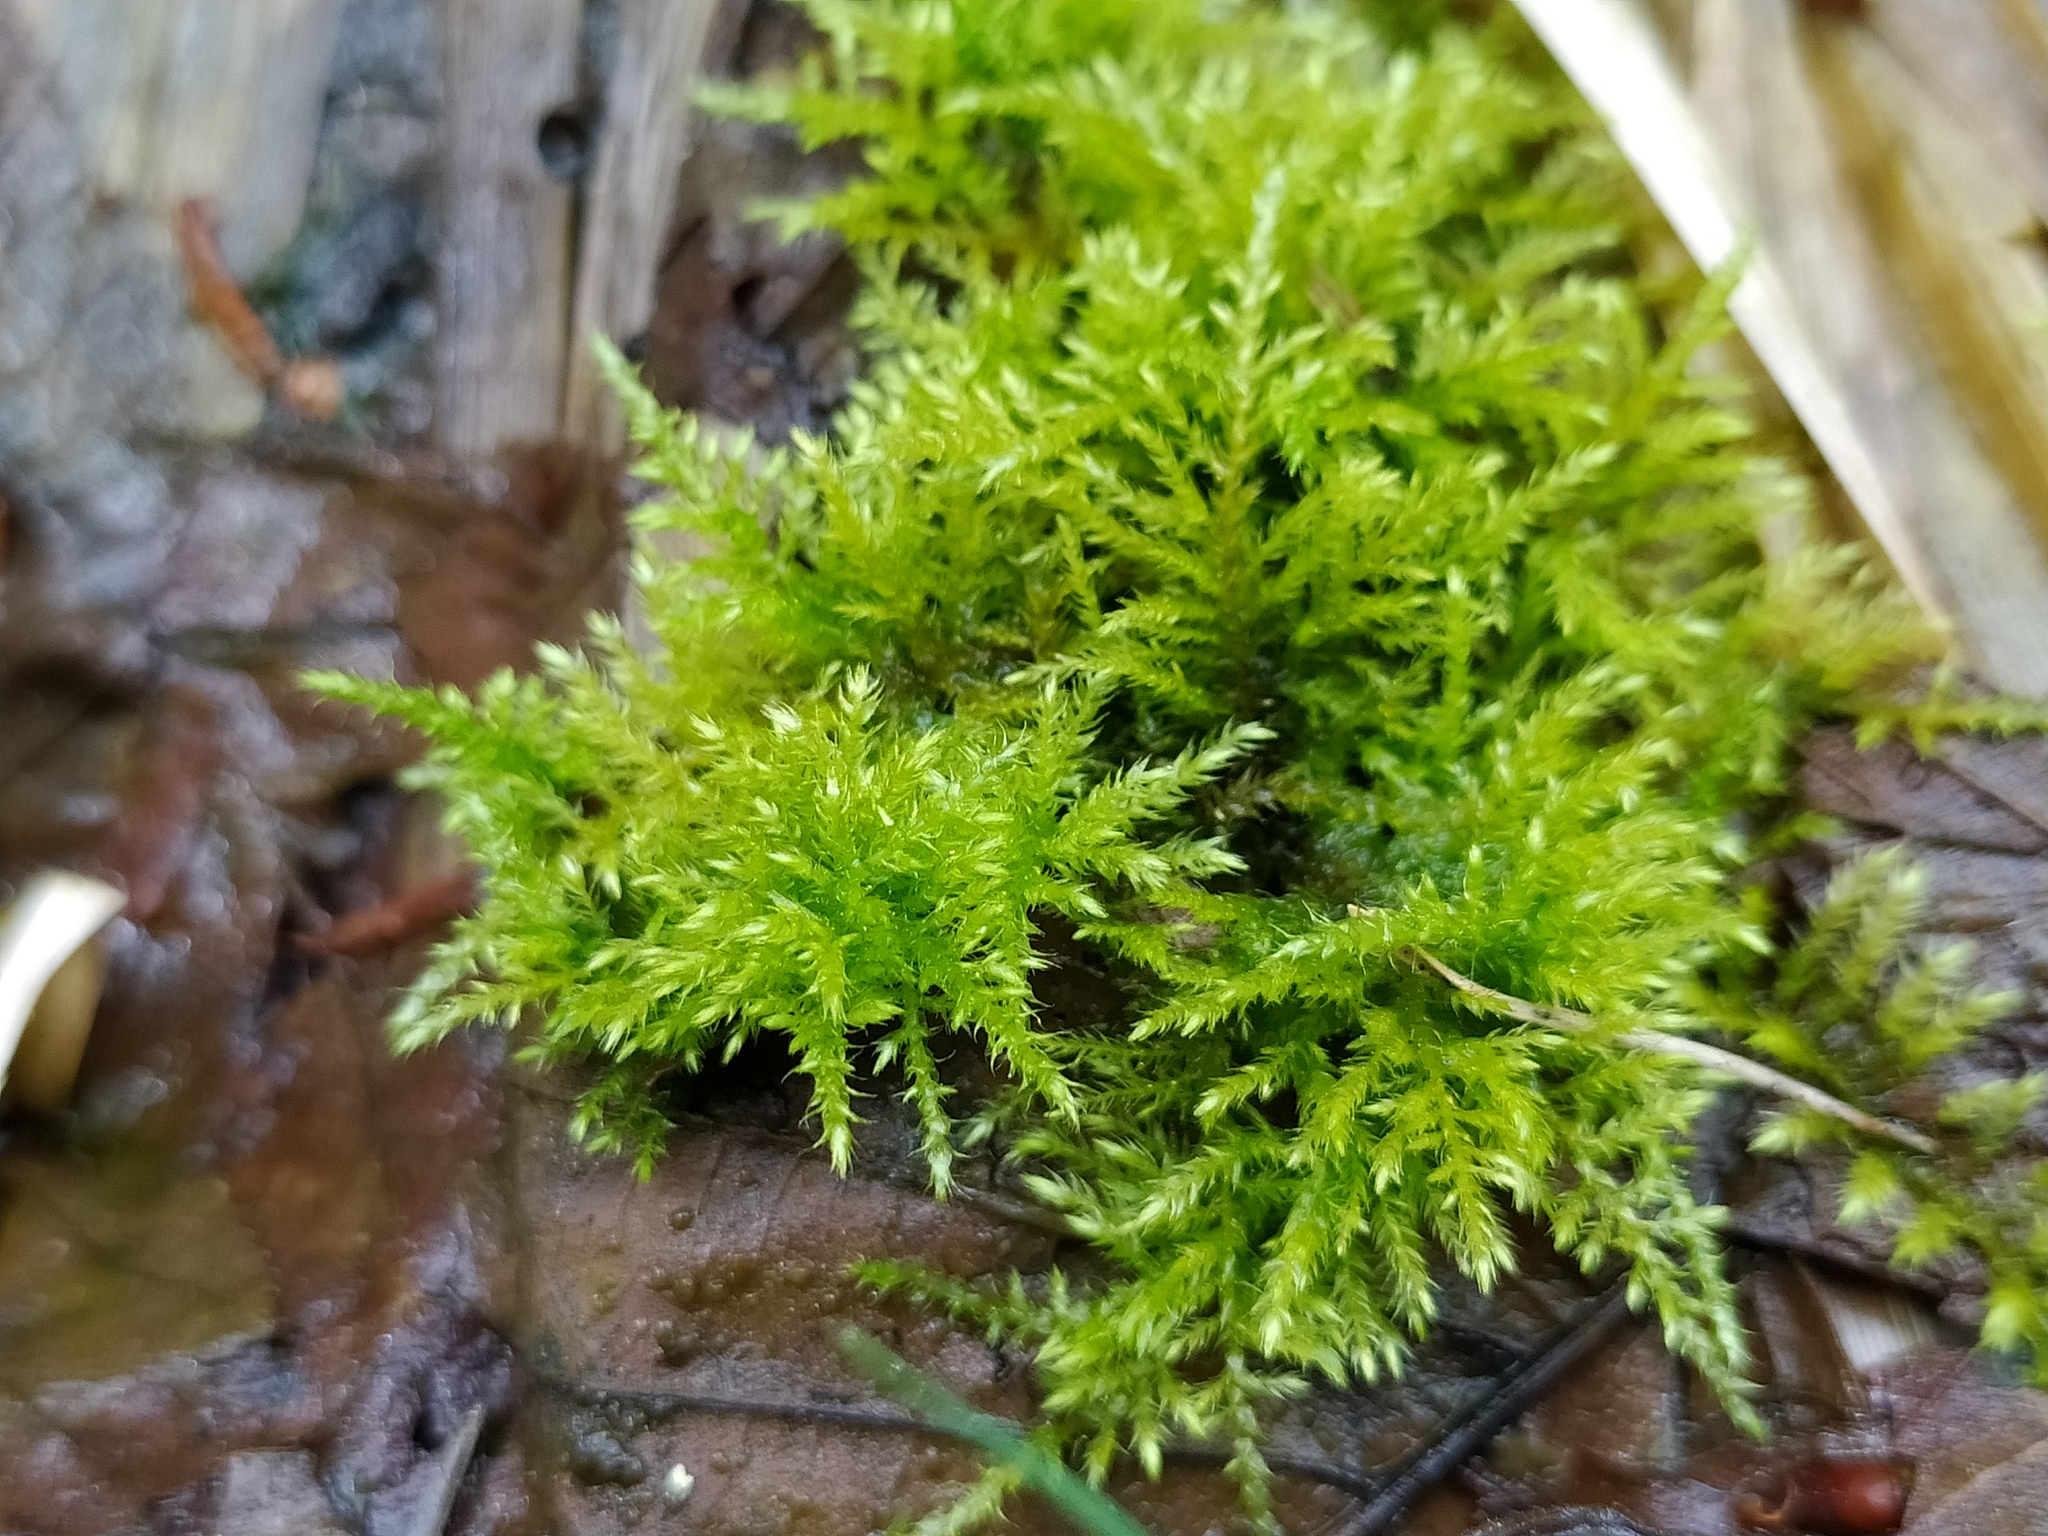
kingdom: Plantae
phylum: Bryophyta
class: Bryopsida
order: Hypnales
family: Brachytheciaceae
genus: Kindbergia
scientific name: Kindbergia praelonga
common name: Slender beaked moss
